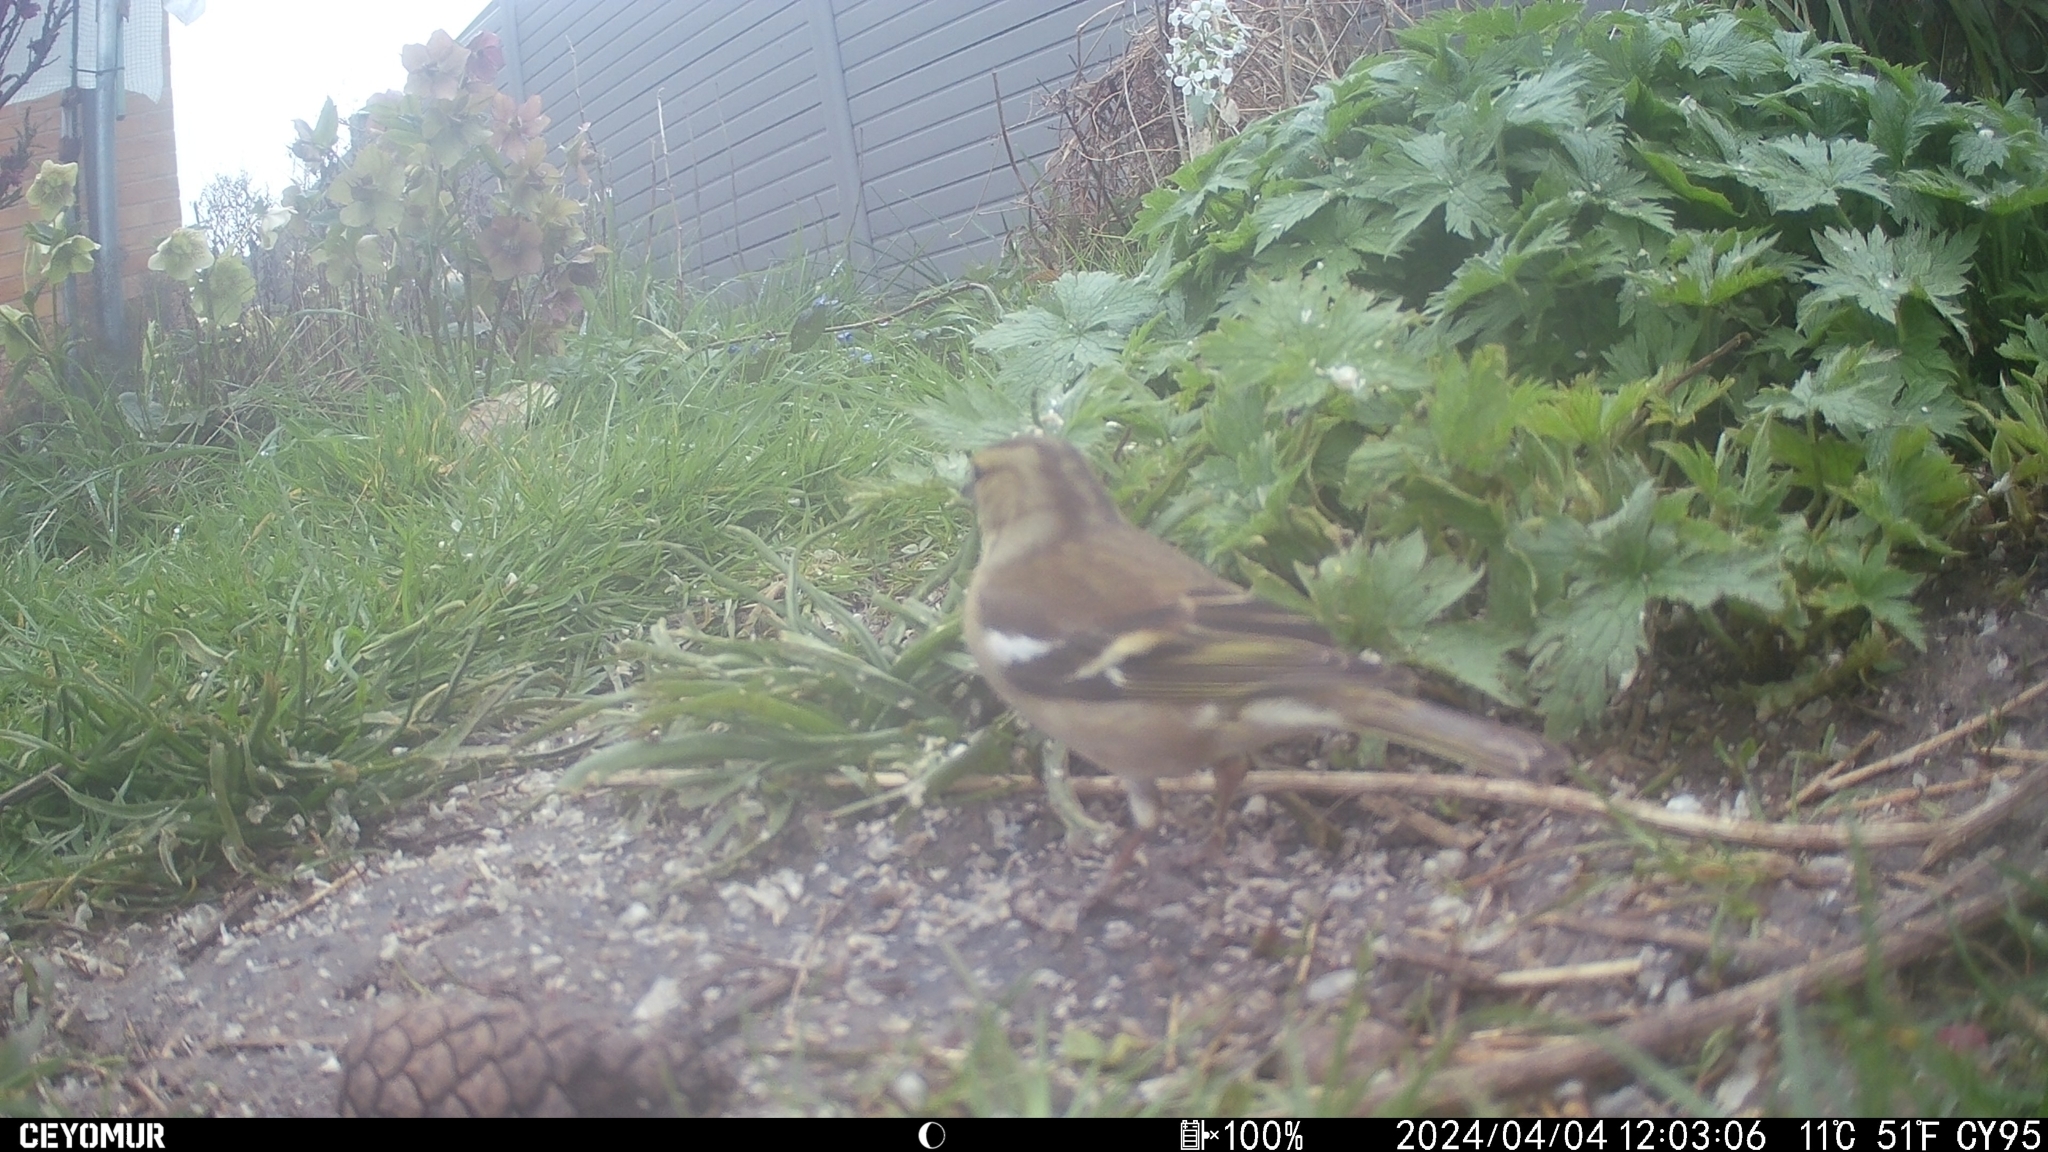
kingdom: Animalia
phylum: Chordata
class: Aves
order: Passeriformes
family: Fringillidae
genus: Fringilla
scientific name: Fringilla coelebs
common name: Common chaffinch
